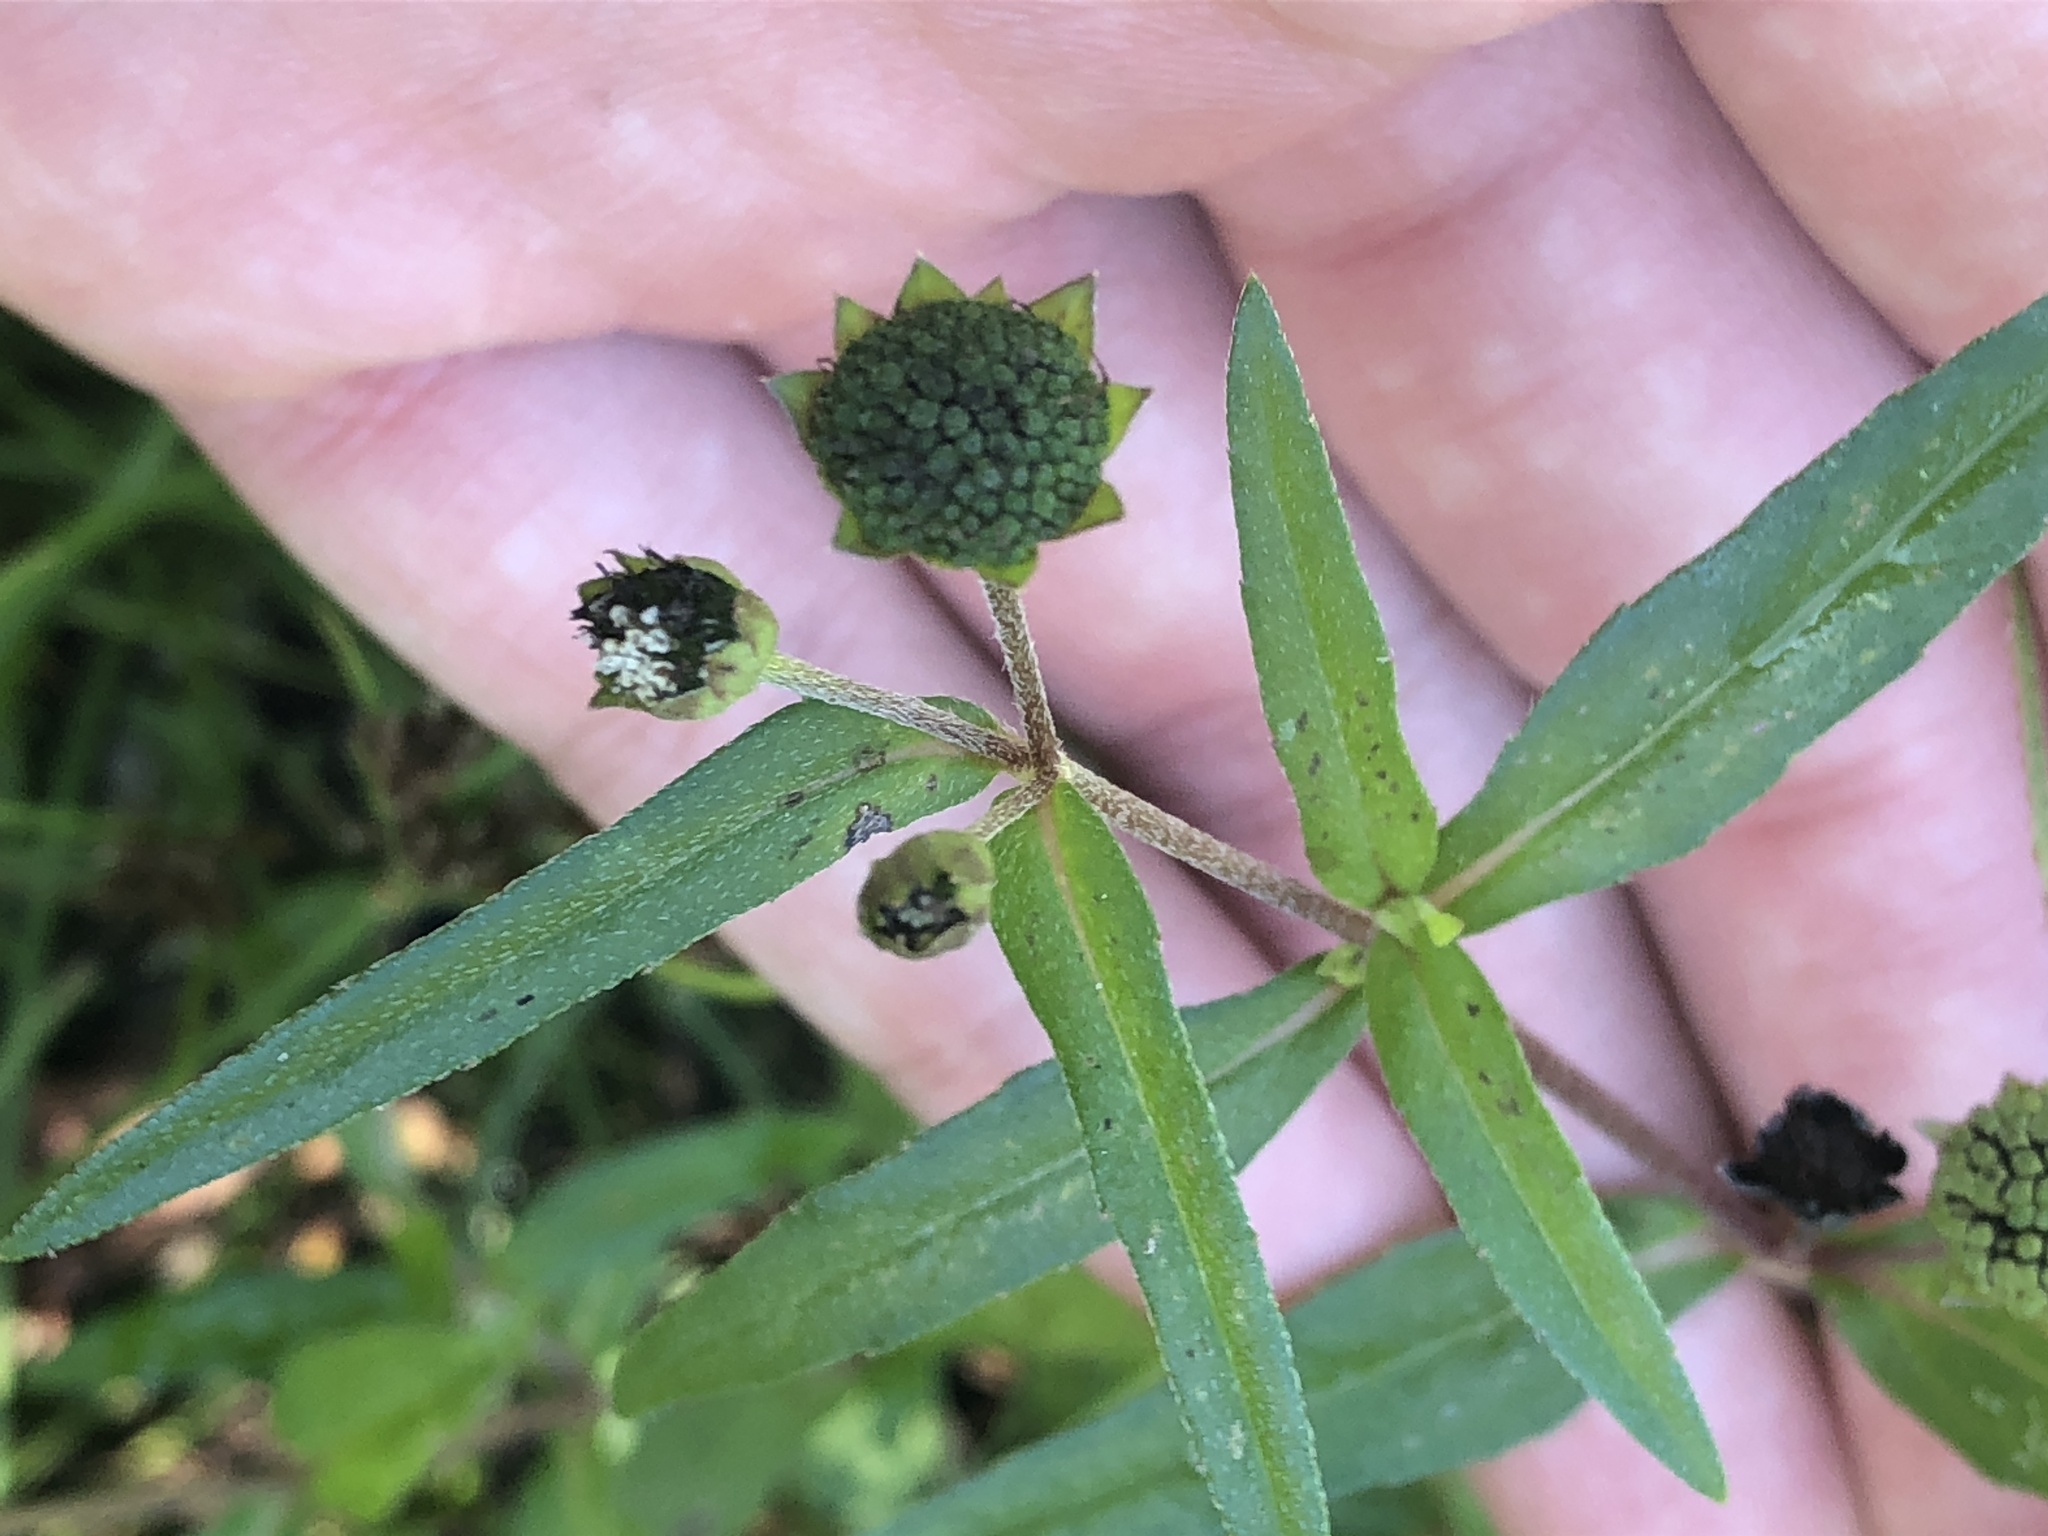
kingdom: Plantae
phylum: Tracheophyta
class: Magnoliopsida
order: Asterales
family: Asteraceae
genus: Eclipta
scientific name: Eclipta prostrata
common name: False daisy
